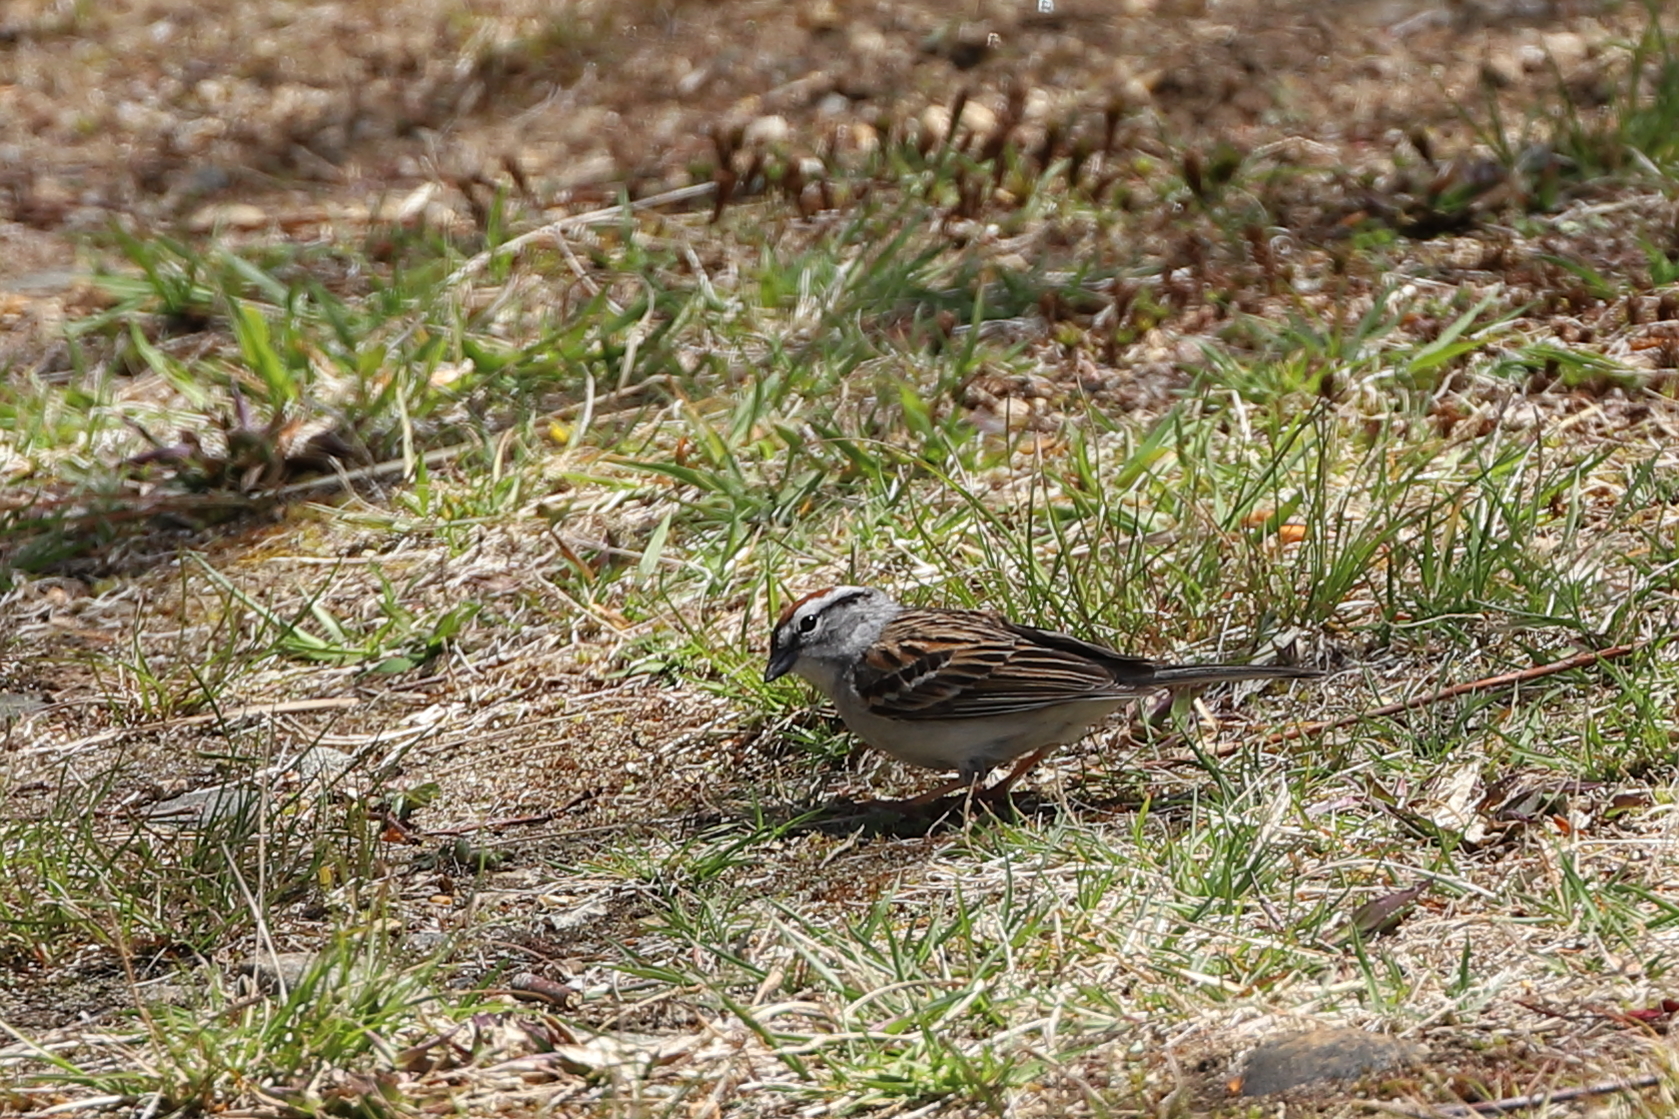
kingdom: Animalia
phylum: Chordata
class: Aves
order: Passeriformes
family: Passerellidae
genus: Spizella
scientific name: Spizella passerina
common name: Chipping sparrow
